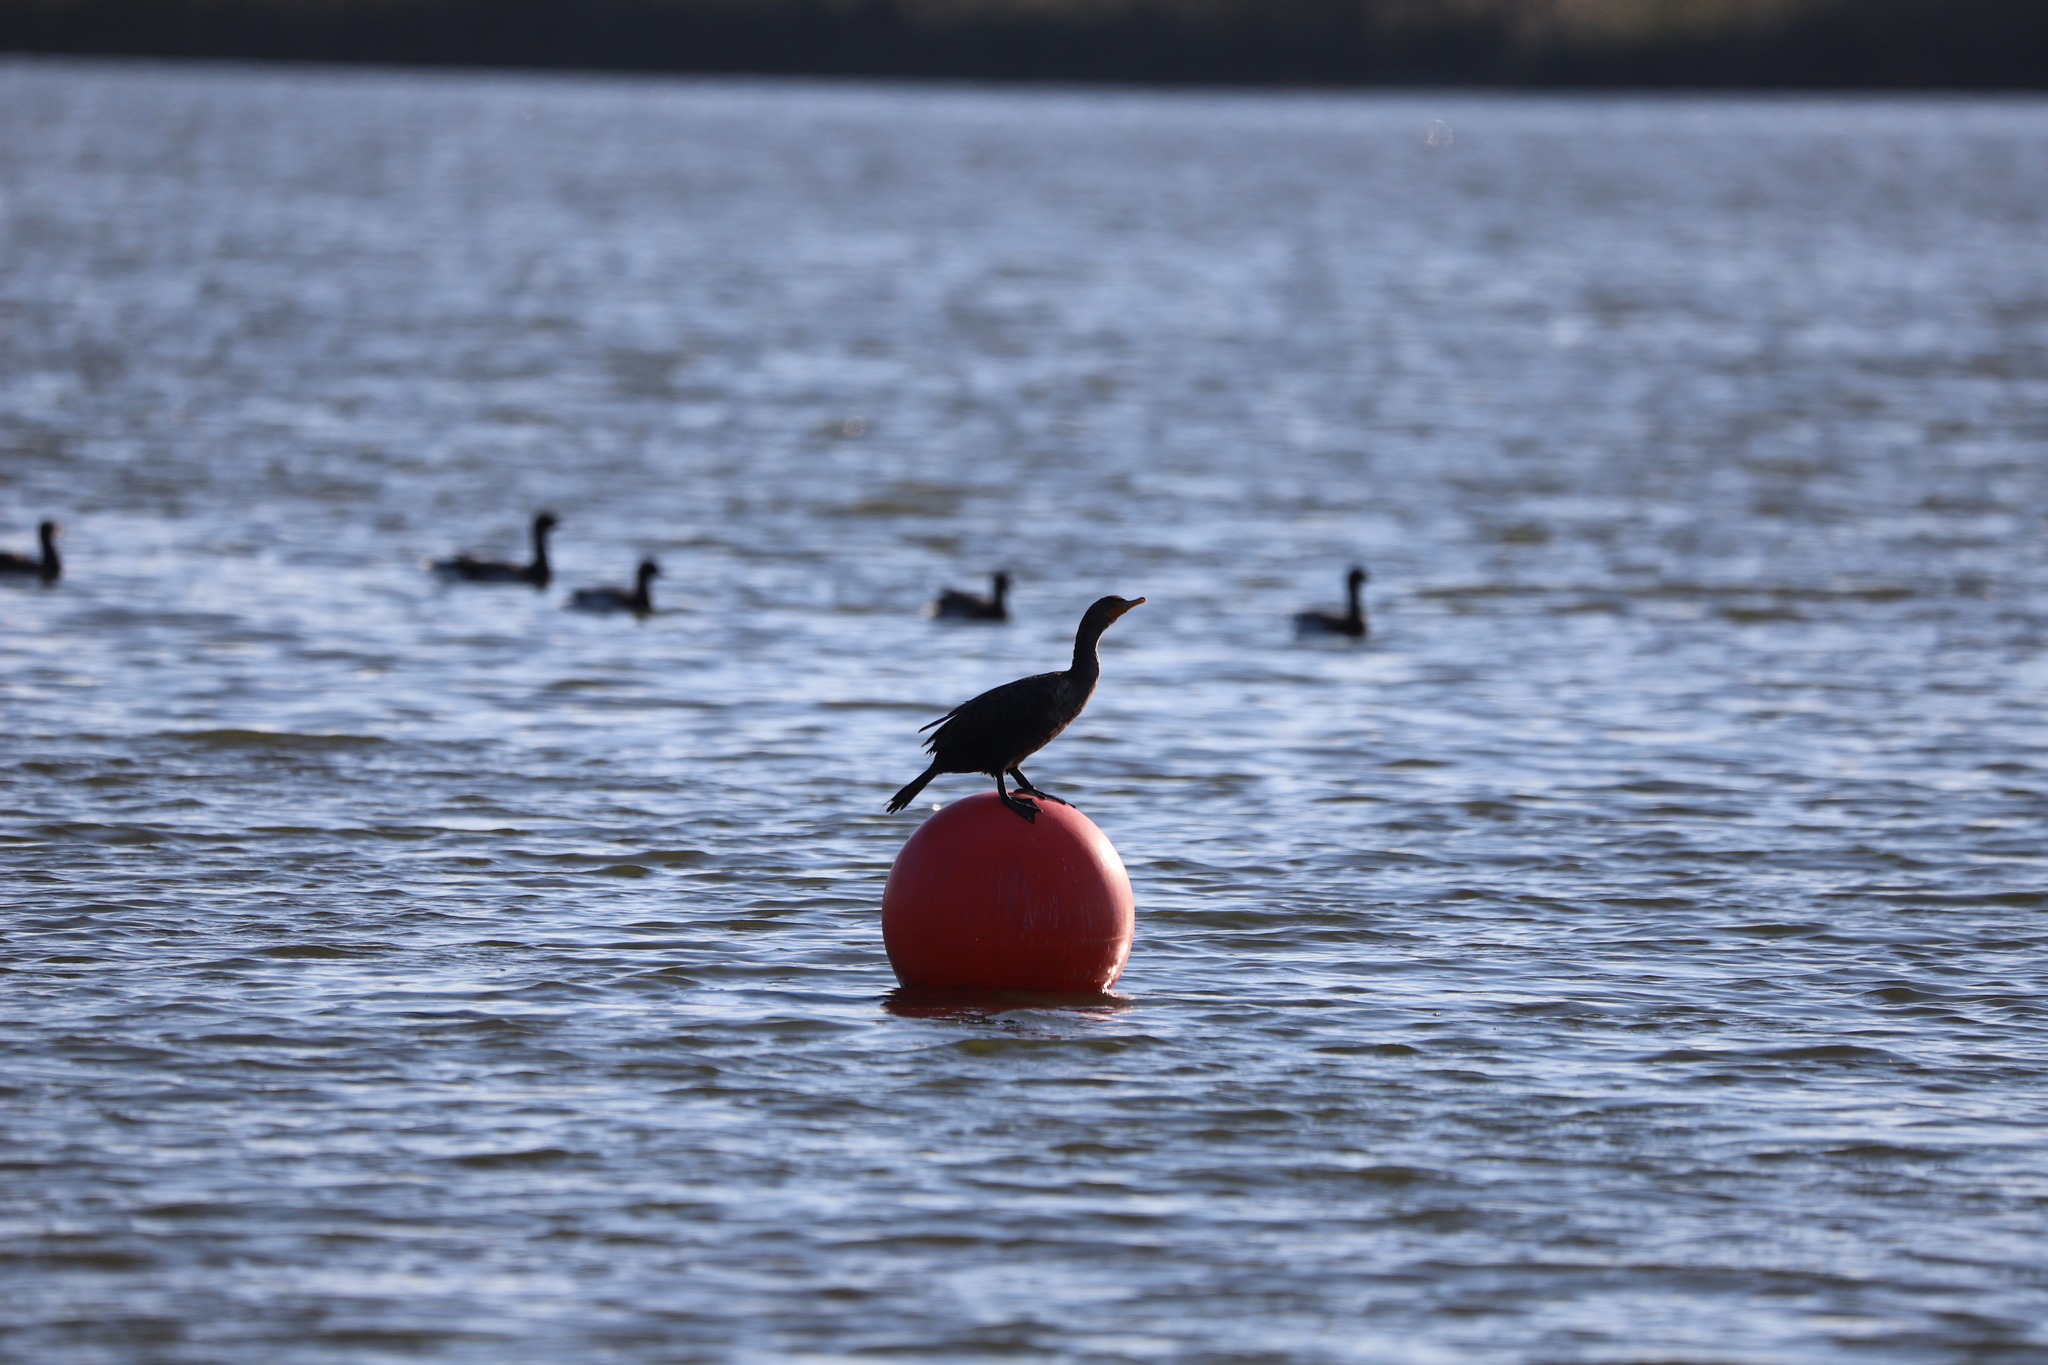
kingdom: Animalia
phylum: Chordata
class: Aves
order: Suliformes
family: Phalacrocoracidae
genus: Phalacrocorax
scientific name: Phalacrocorax auritus
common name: Double-crested cormorant
